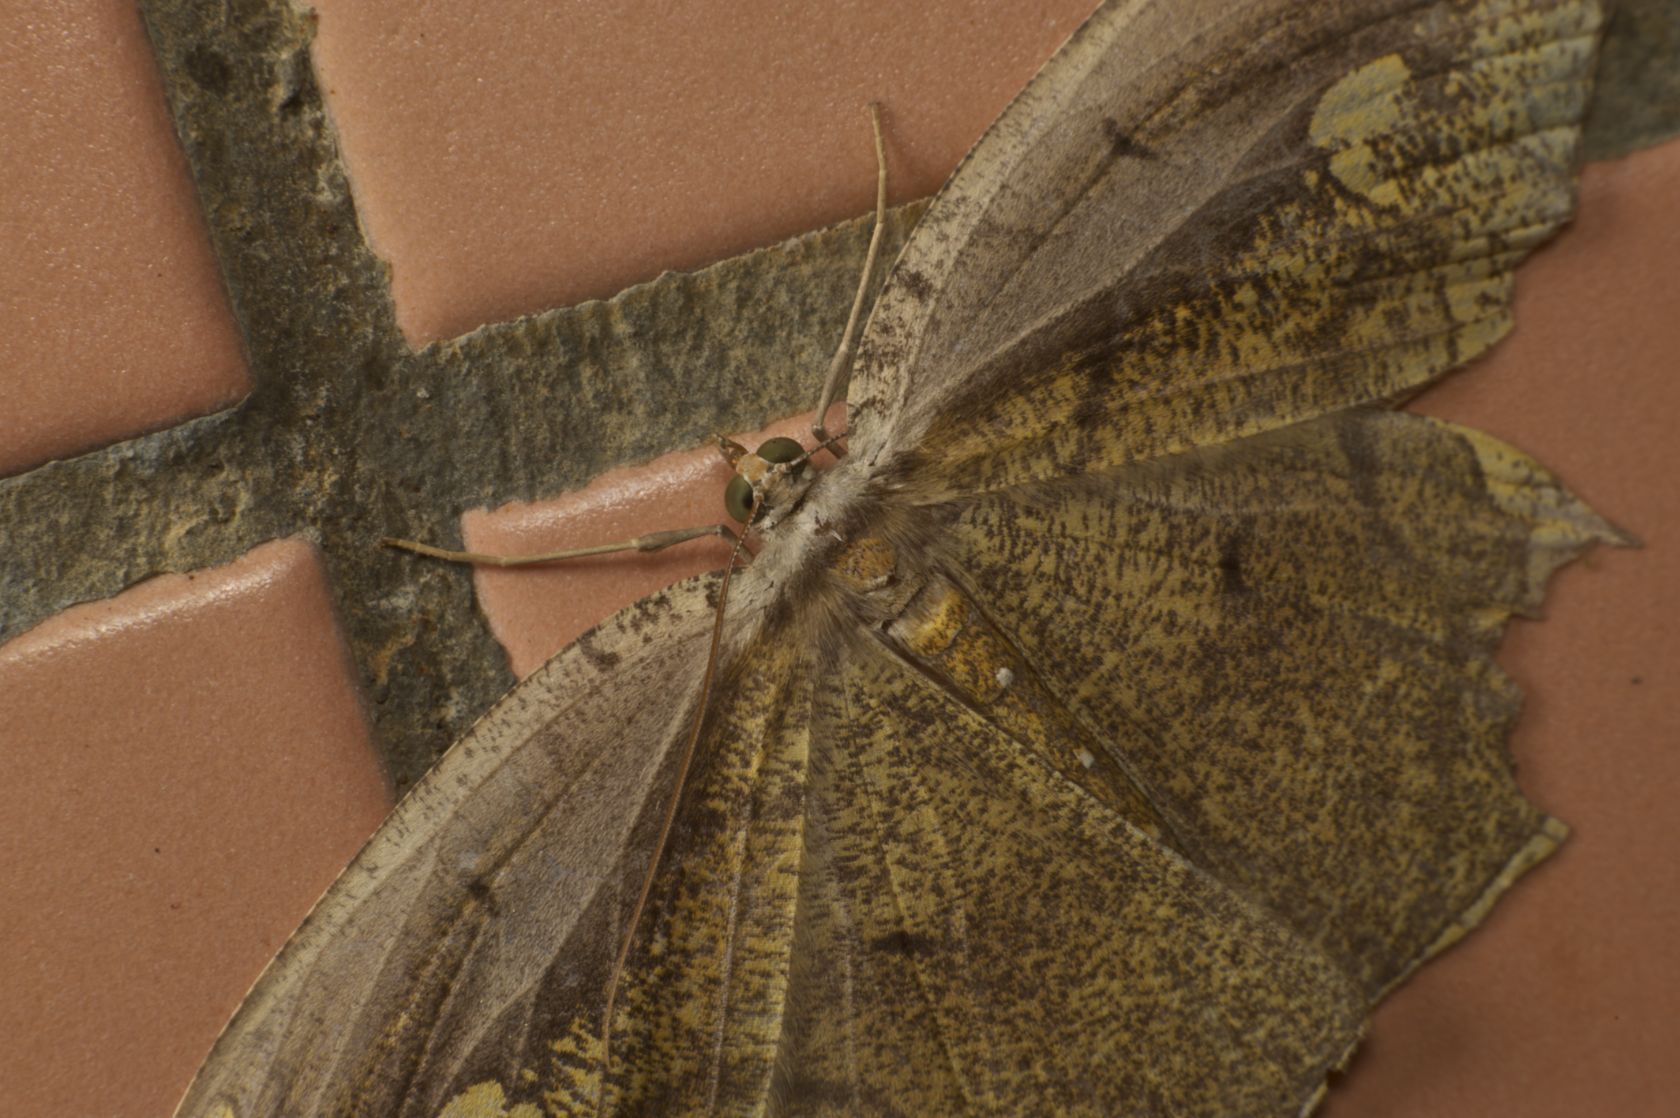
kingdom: Animalia
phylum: Arthropoda
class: Insecta
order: Lepidoptera
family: Geometridae
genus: Pareumelea
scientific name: Pareumelea eugeniata
